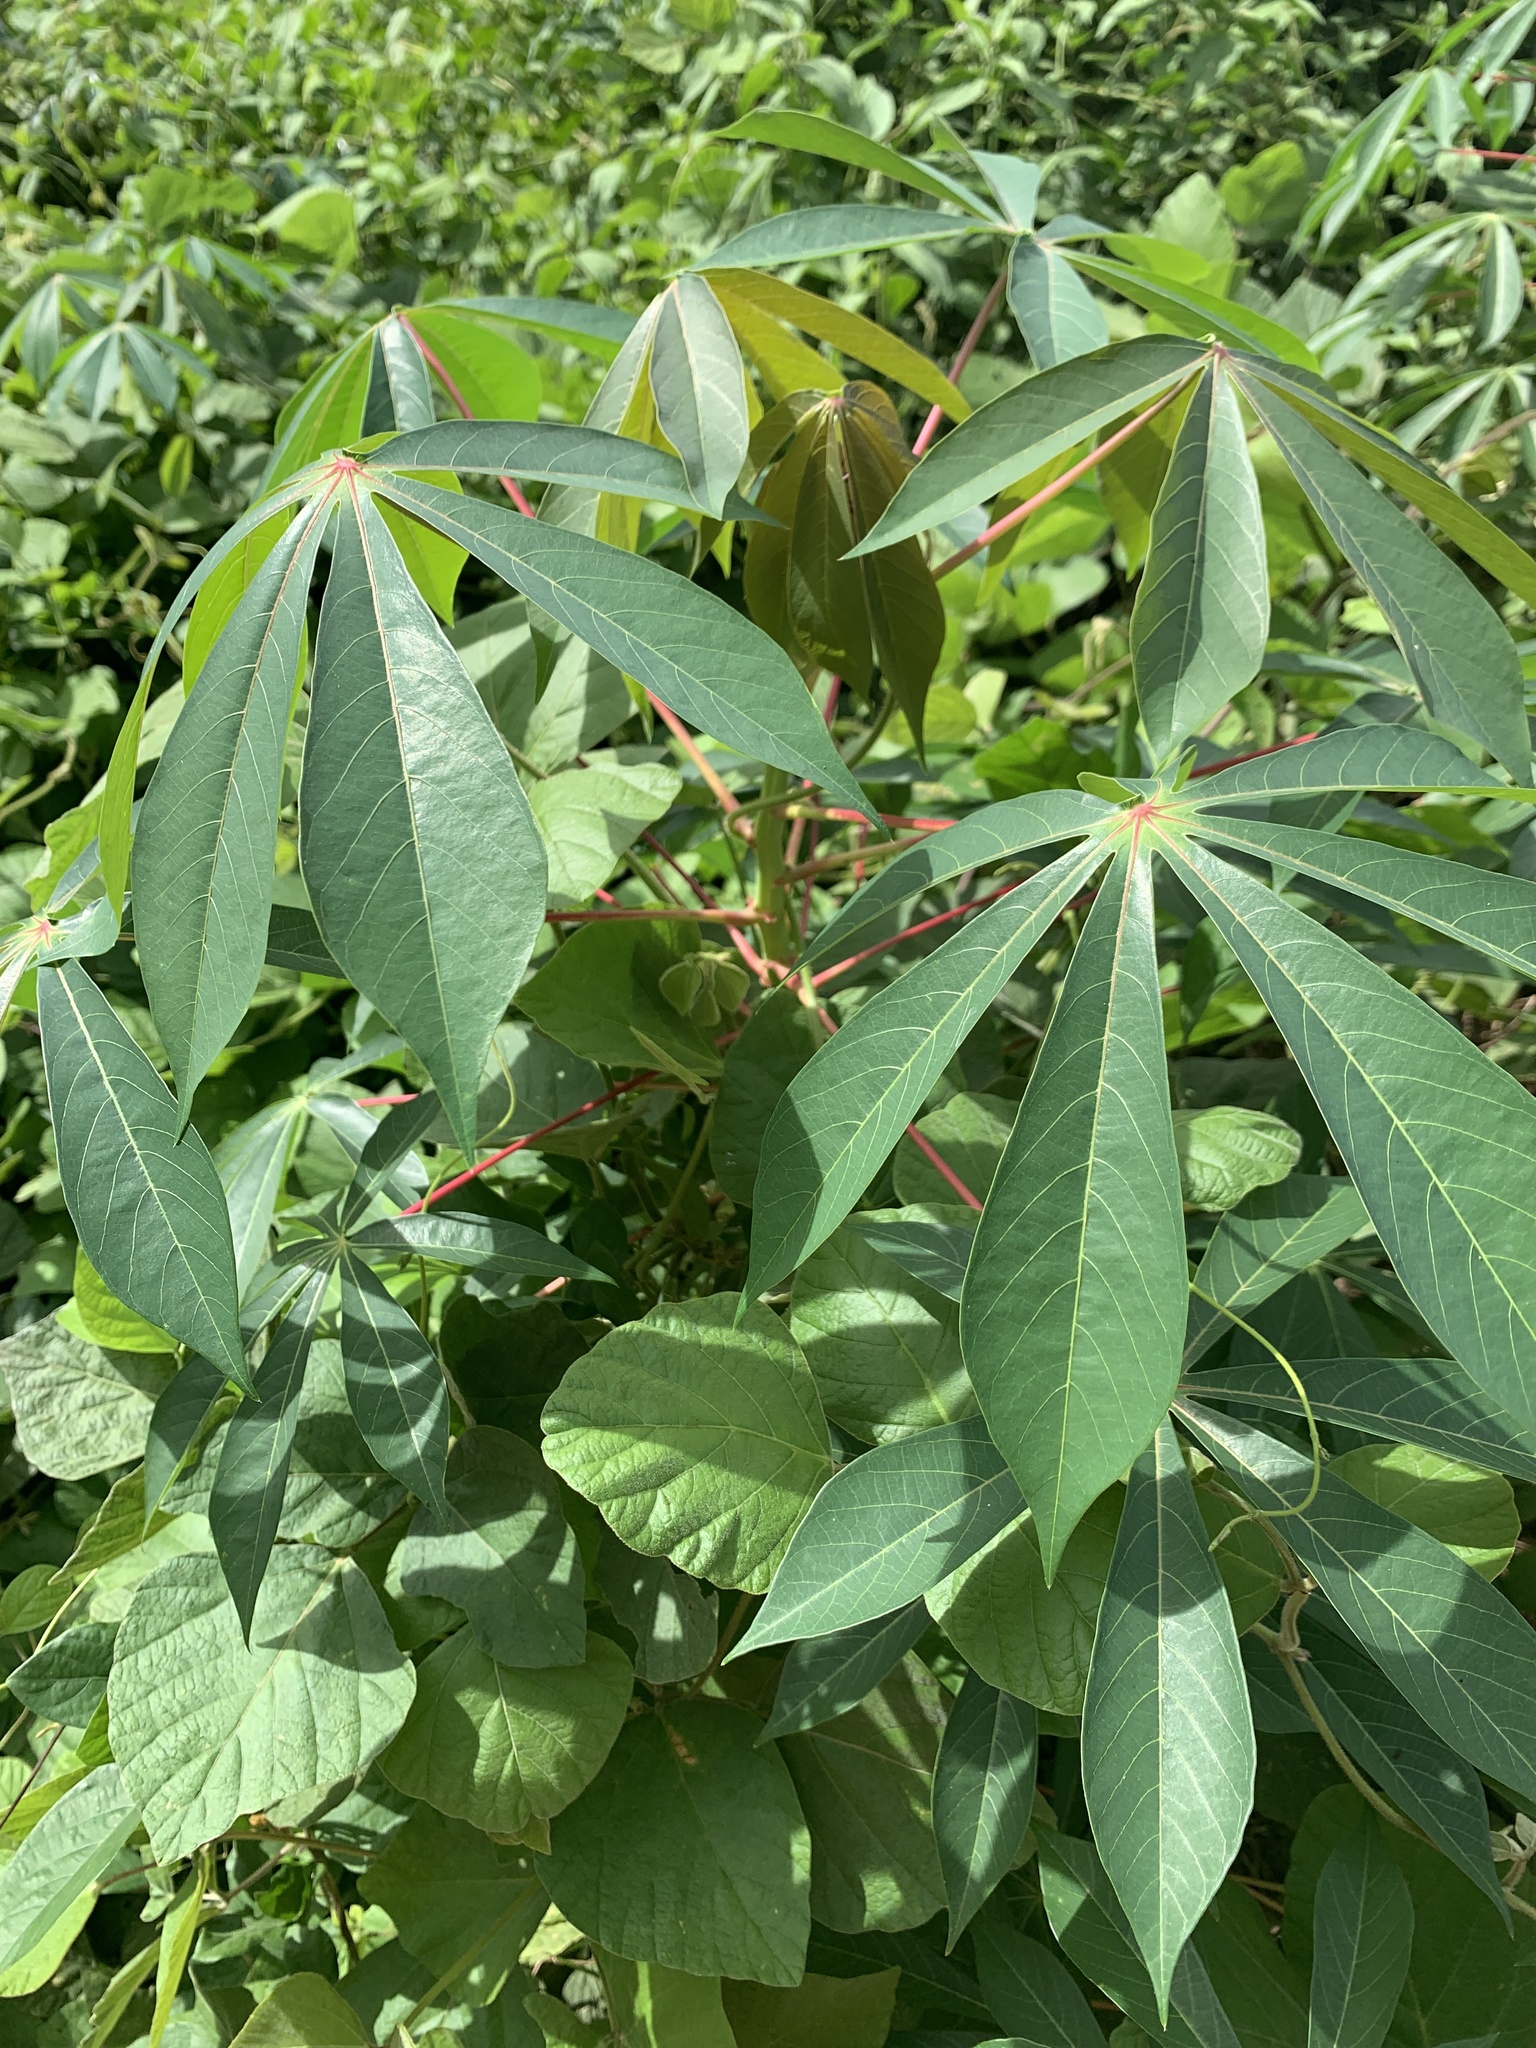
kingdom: Plantae
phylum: Tracheophyta
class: Magnoliopsida
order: Malpighiales
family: Euphorbiaceae
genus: Manihot
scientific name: Manihot esculenta
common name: Cassava
